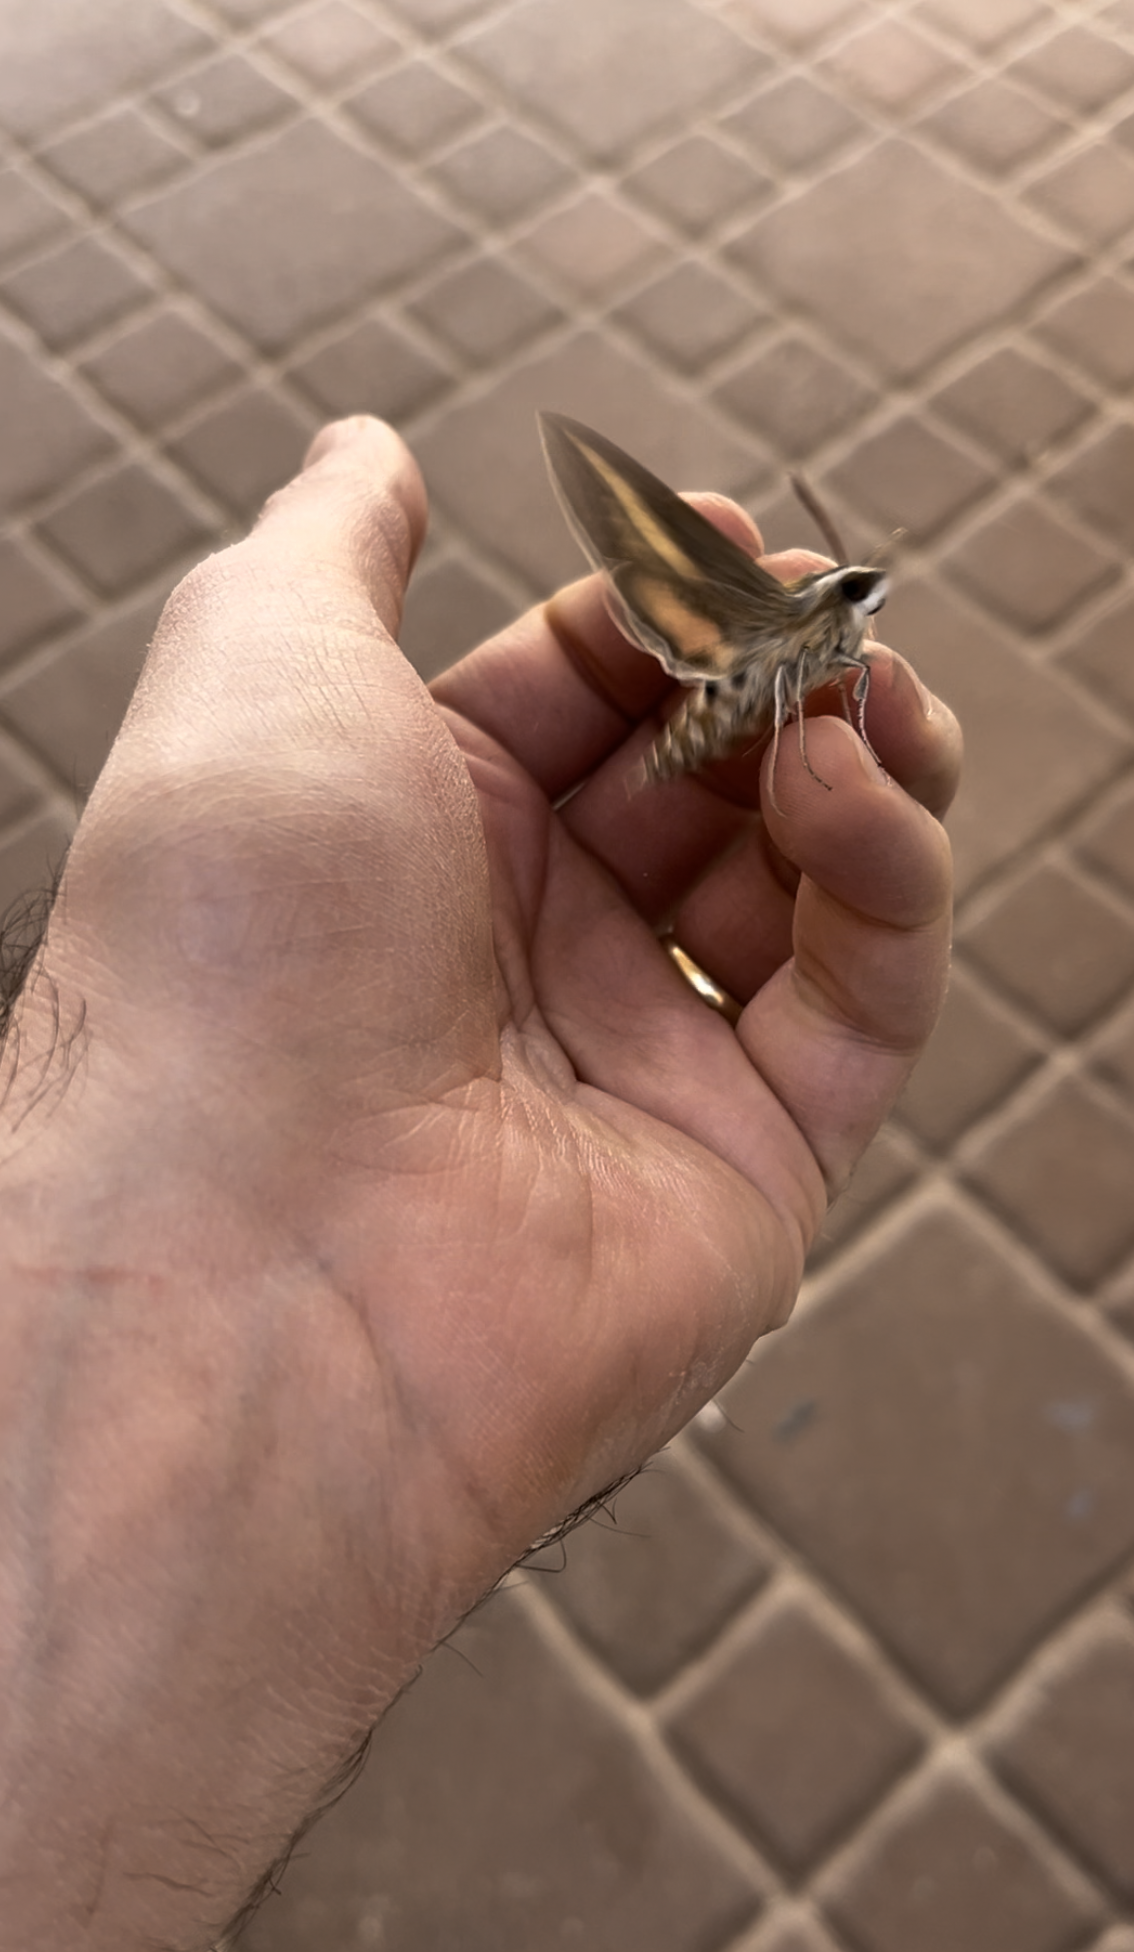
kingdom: Animalia
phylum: Arthropoda
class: Insecta
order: Lepidoptera
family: Sphingidae
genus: Hyles
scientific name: Hyles livornica
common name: Striped hawk-moth
